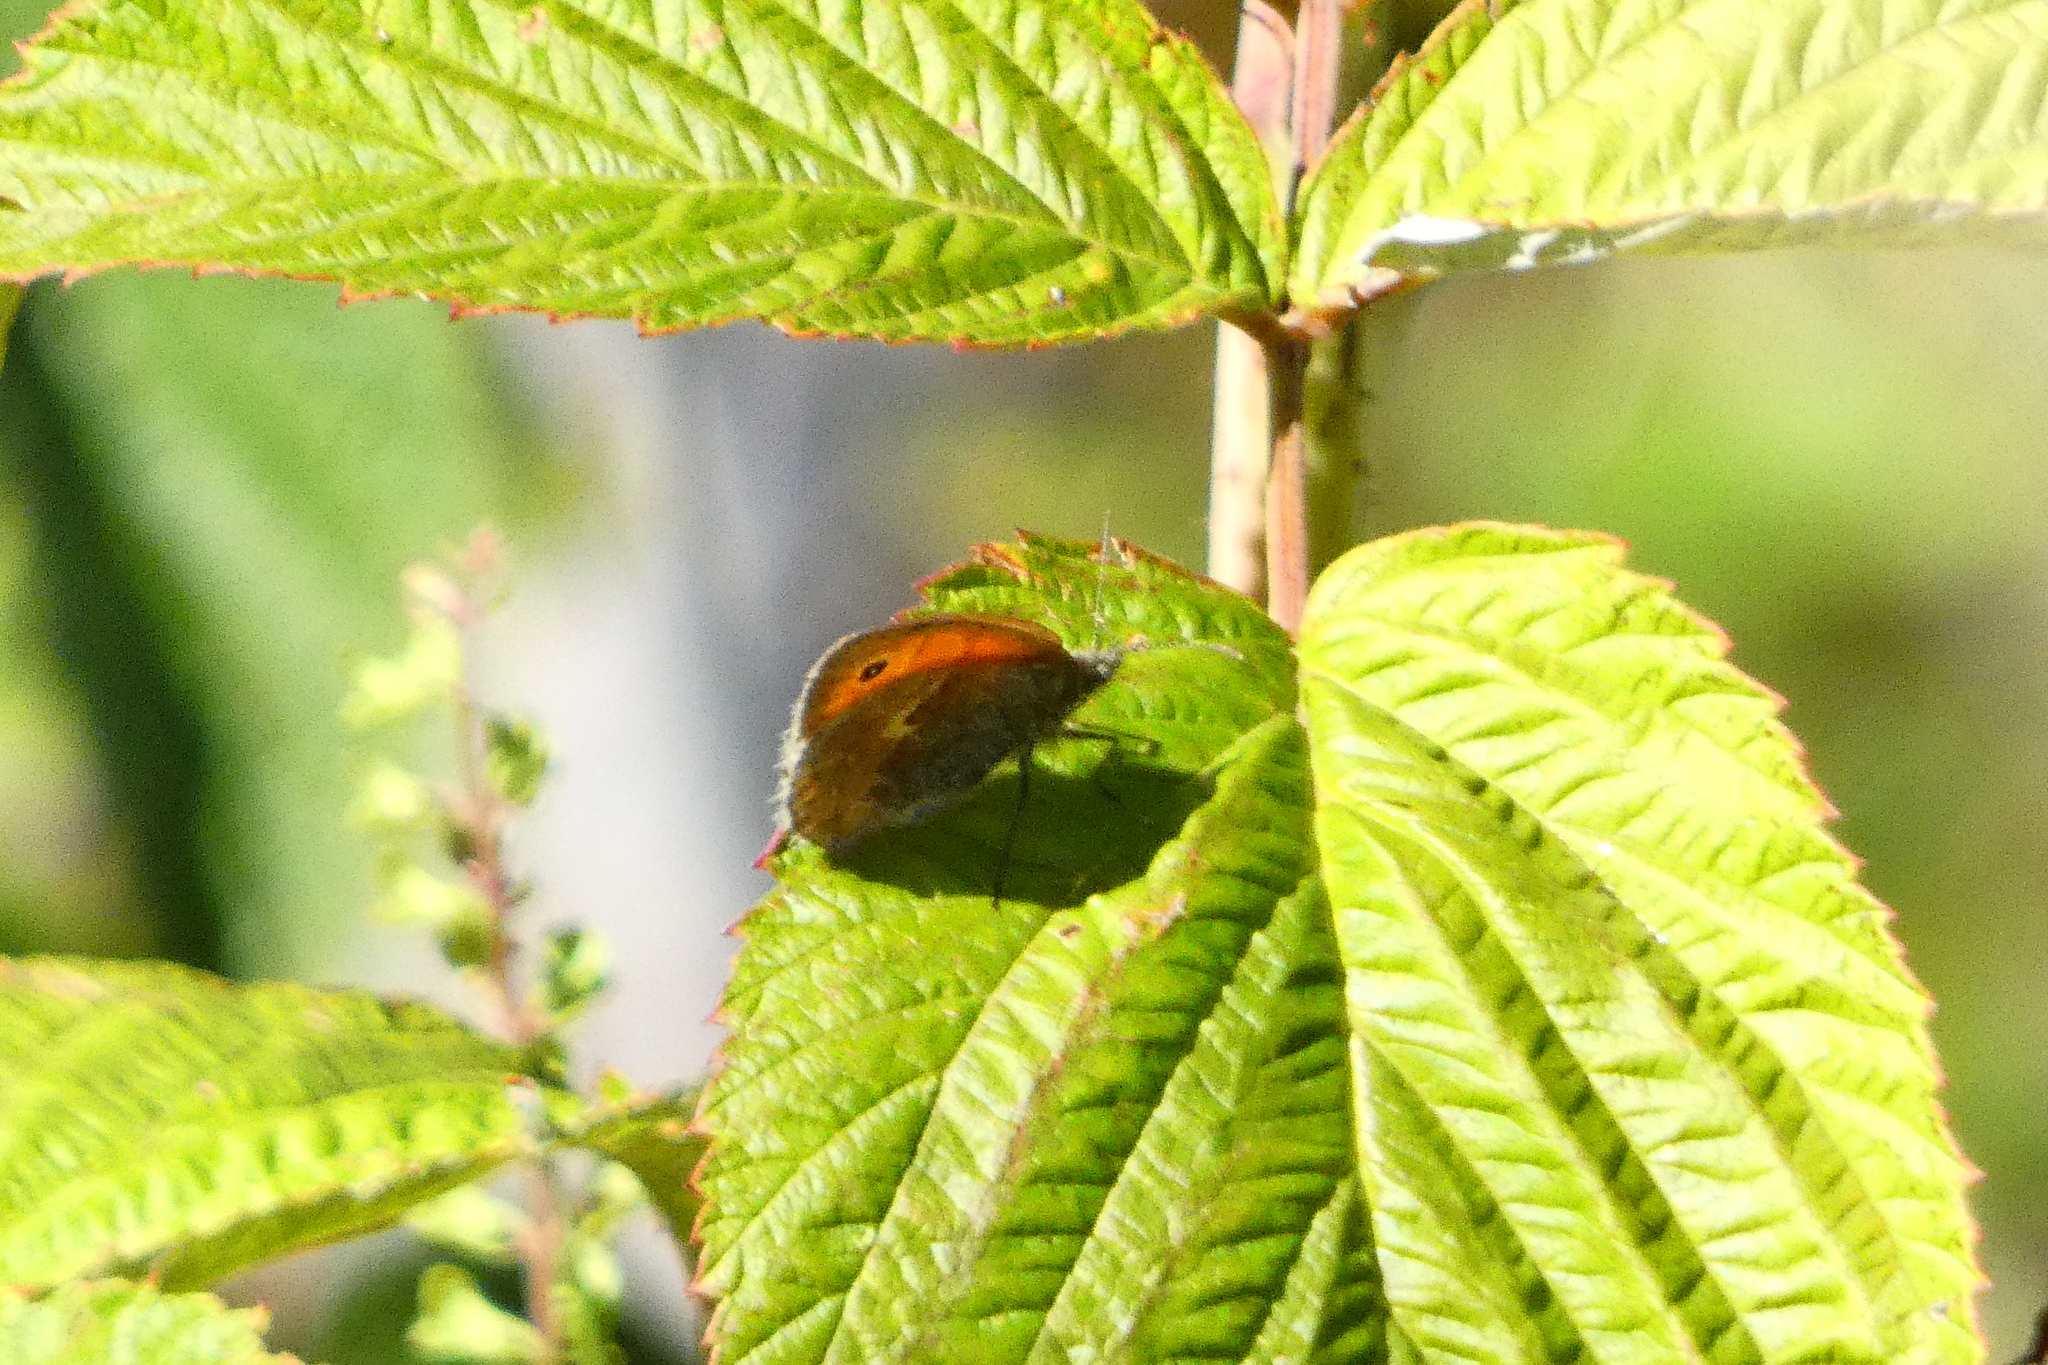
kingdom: Animalia
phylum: Arthropoda
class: Insecta
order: Lepidoptera
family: Nymphalidae
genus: Coenonympha
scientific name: Coenonympha pamphilus
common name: Small heath
